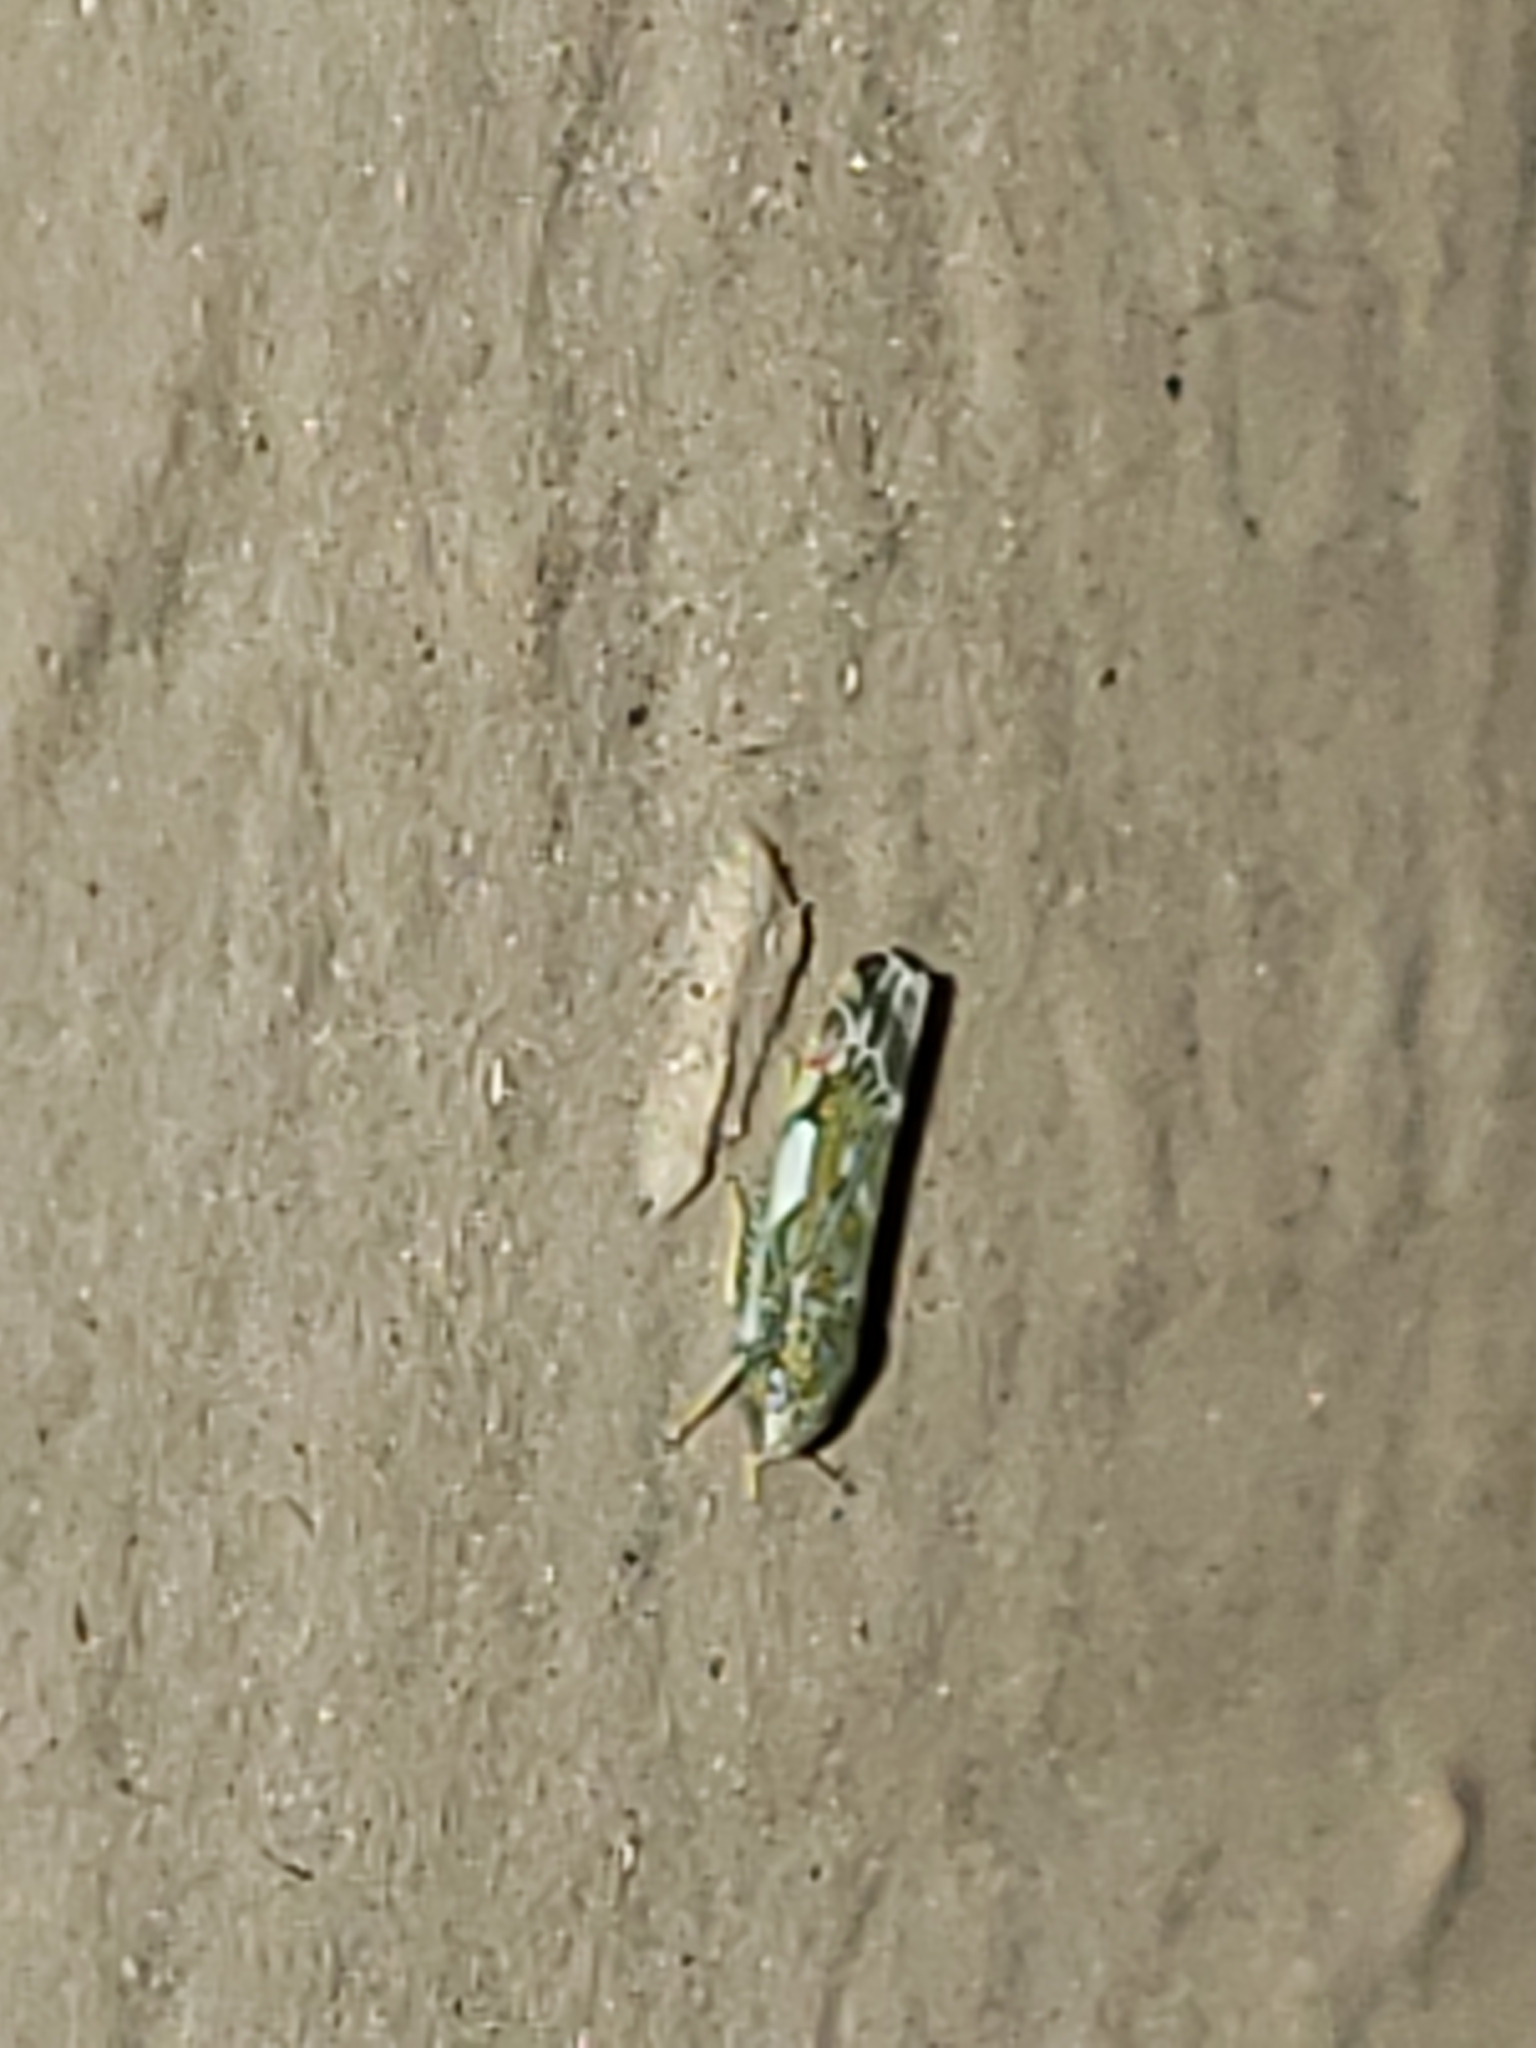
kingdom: Animalia
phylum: Arthropoda
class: Insecta
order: Hemiptera
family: Cicadellidae
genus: Erasmoneura
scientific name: Erasmoneura vulnerata
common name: The wounded leafhopper
